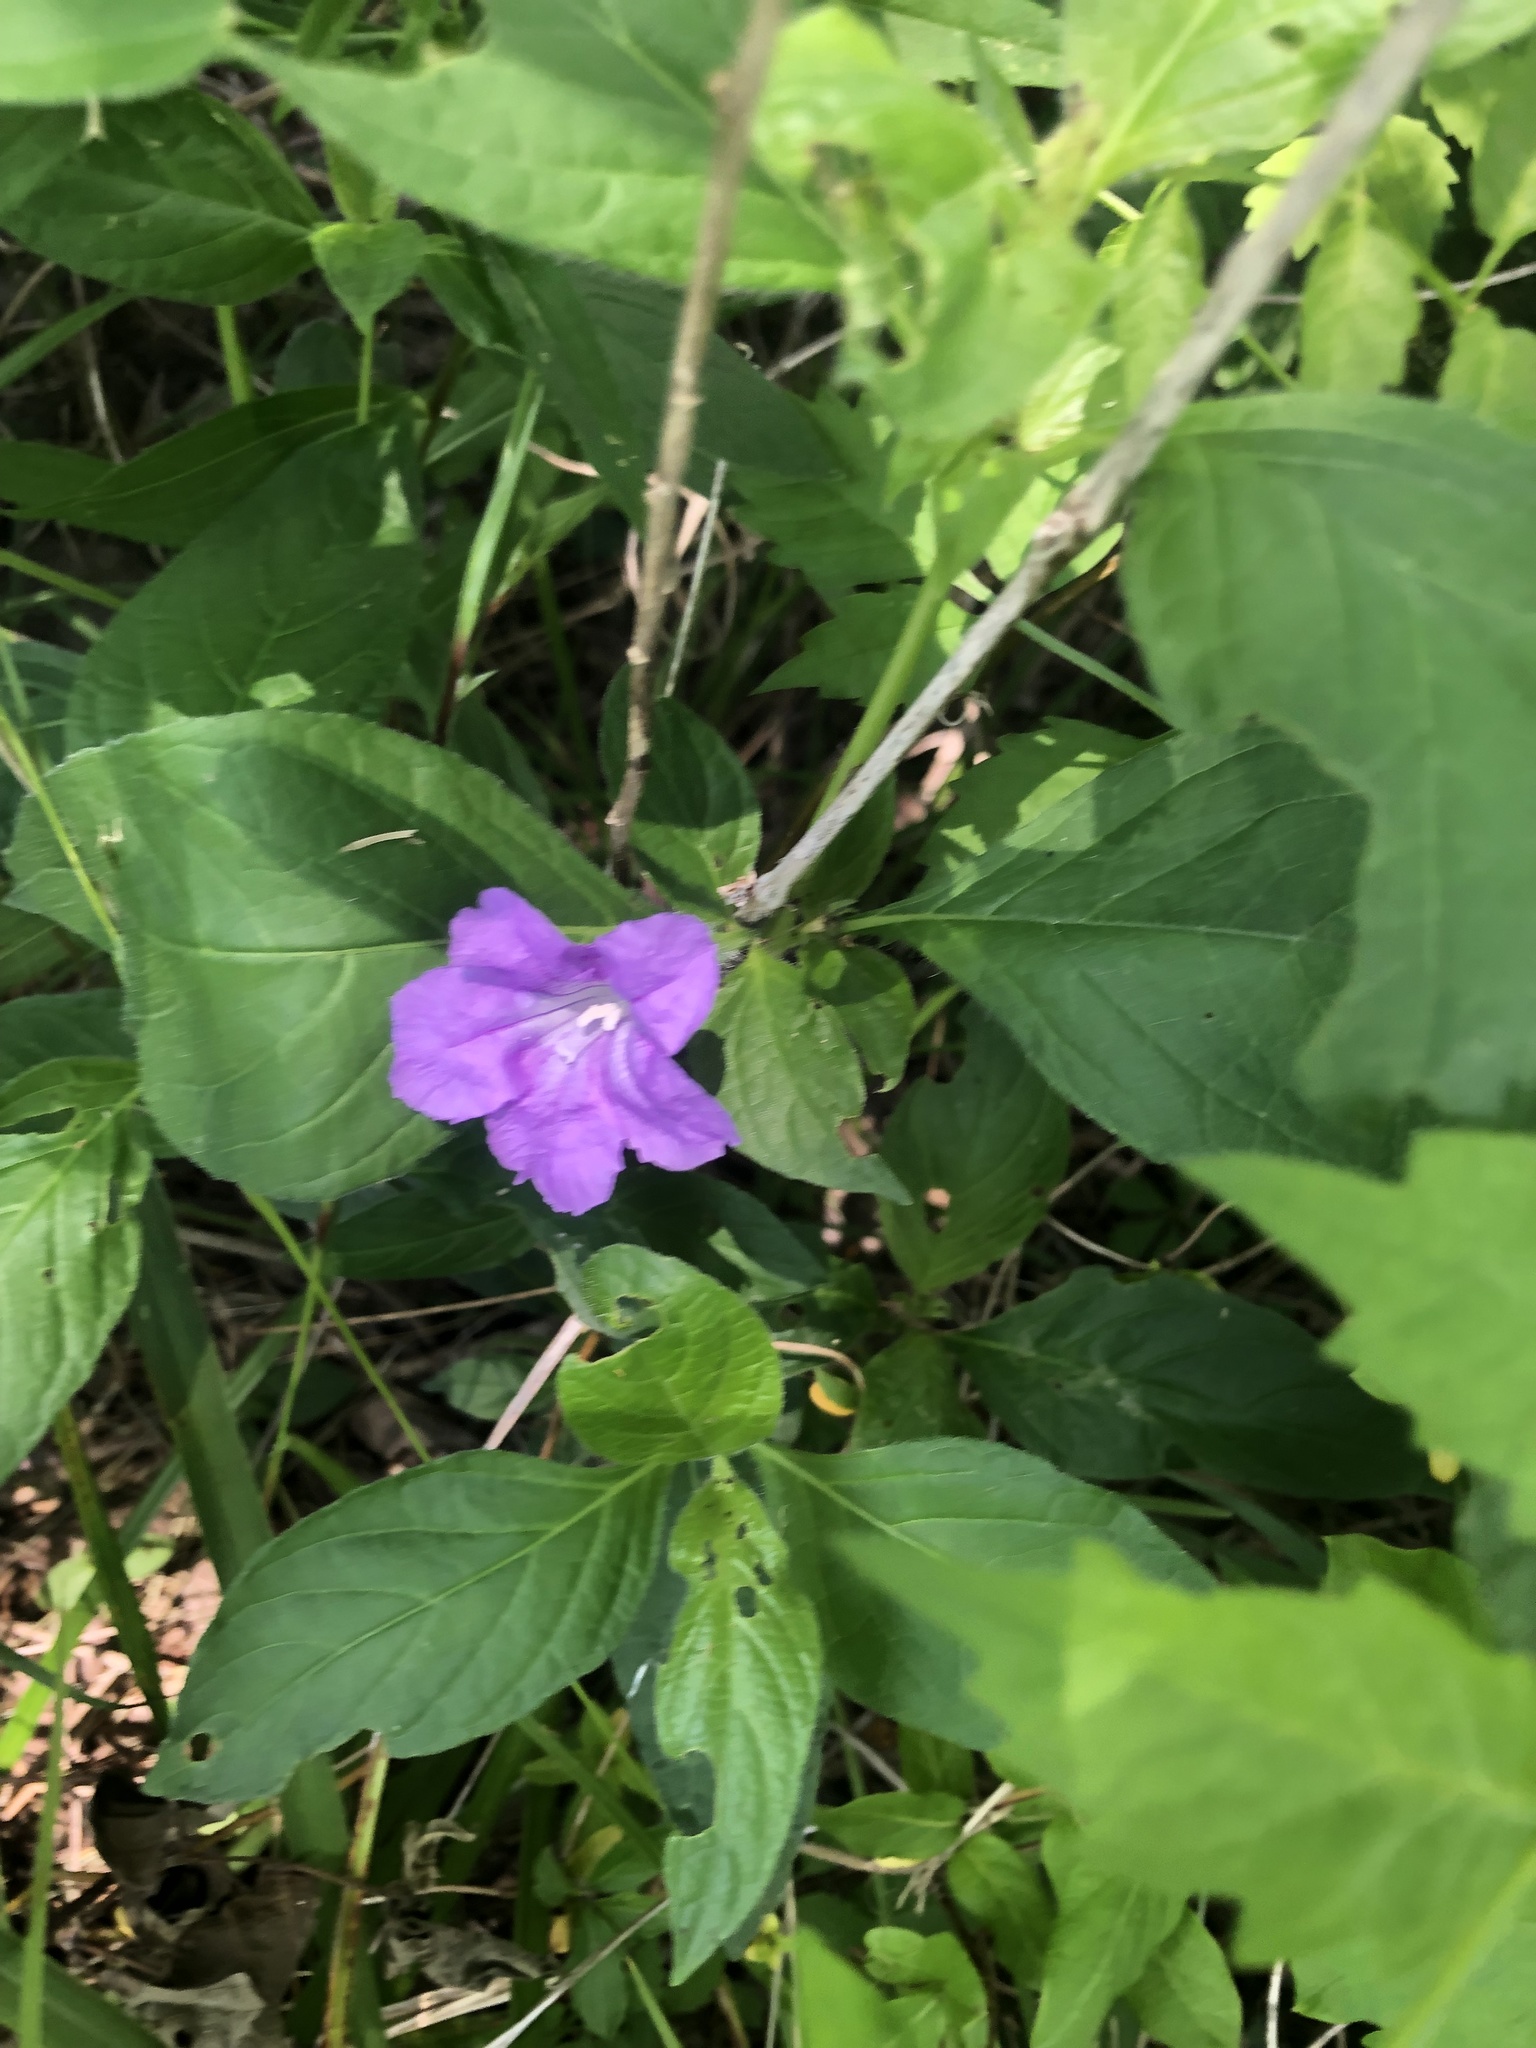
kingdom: Plantae
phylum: Tracheophyta
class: Magnoliopsida
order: Lamiales
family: Acanthaceae
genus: Ruellia
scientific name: Ruellia strepens
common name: Limestone wild petunia
